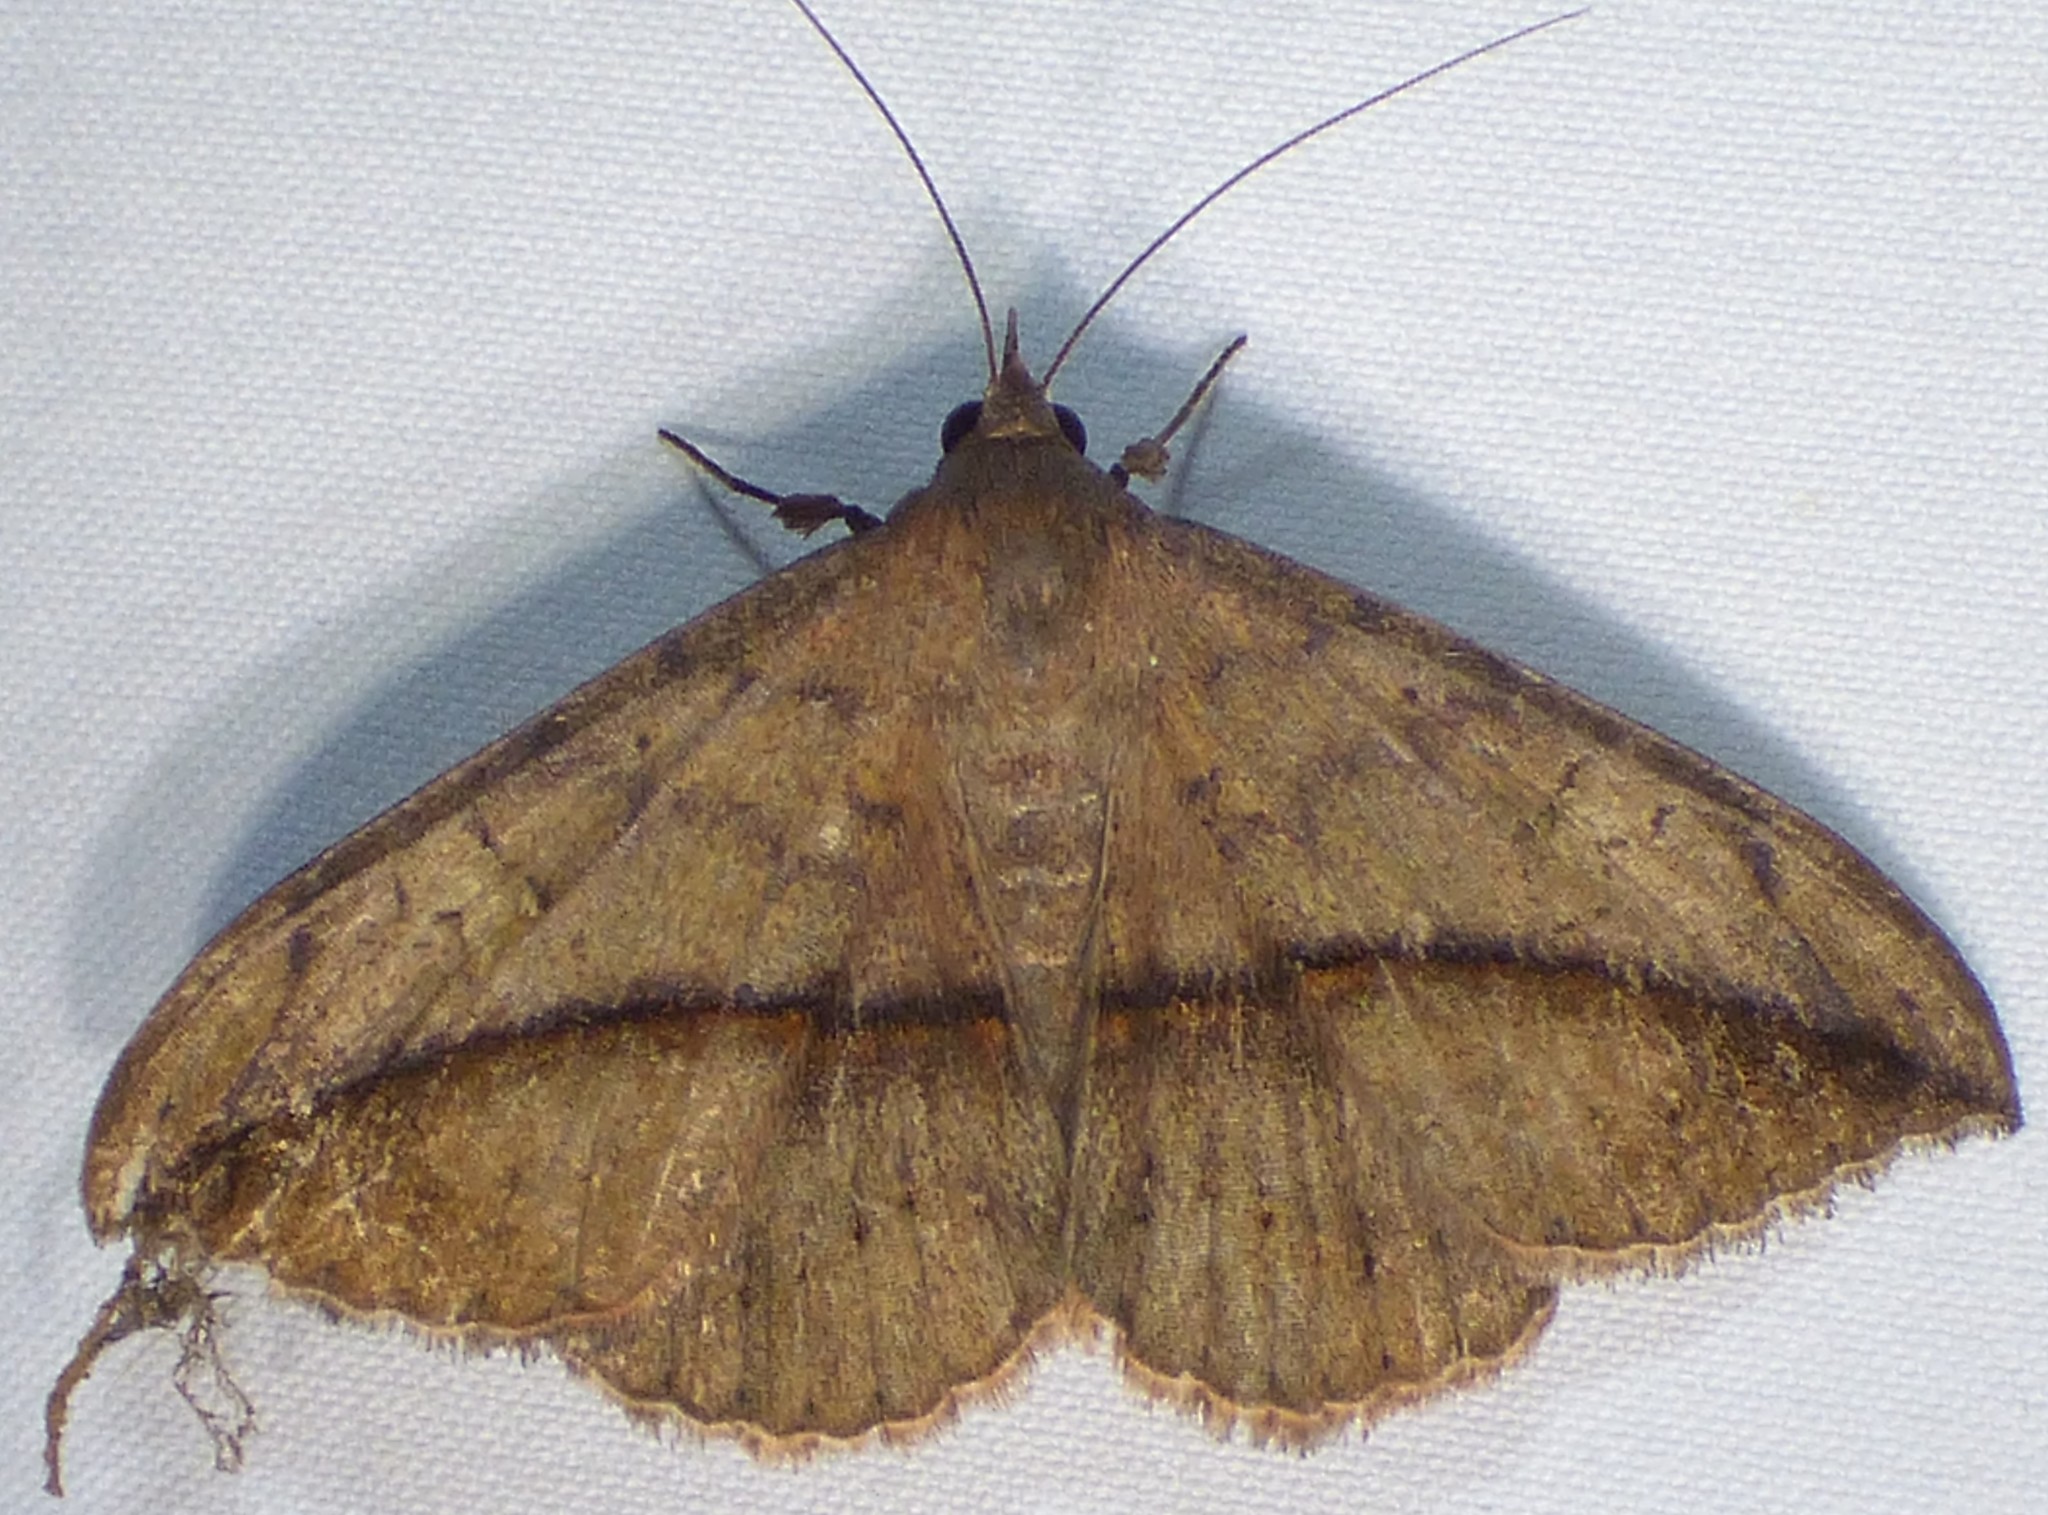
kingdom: Animalia
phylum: Arthropoda
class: Insecta
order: Lepidoptera
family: Erebidae
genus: Anticarsia
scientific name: Anticarsia gemmatalis
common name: Cutworm moth
